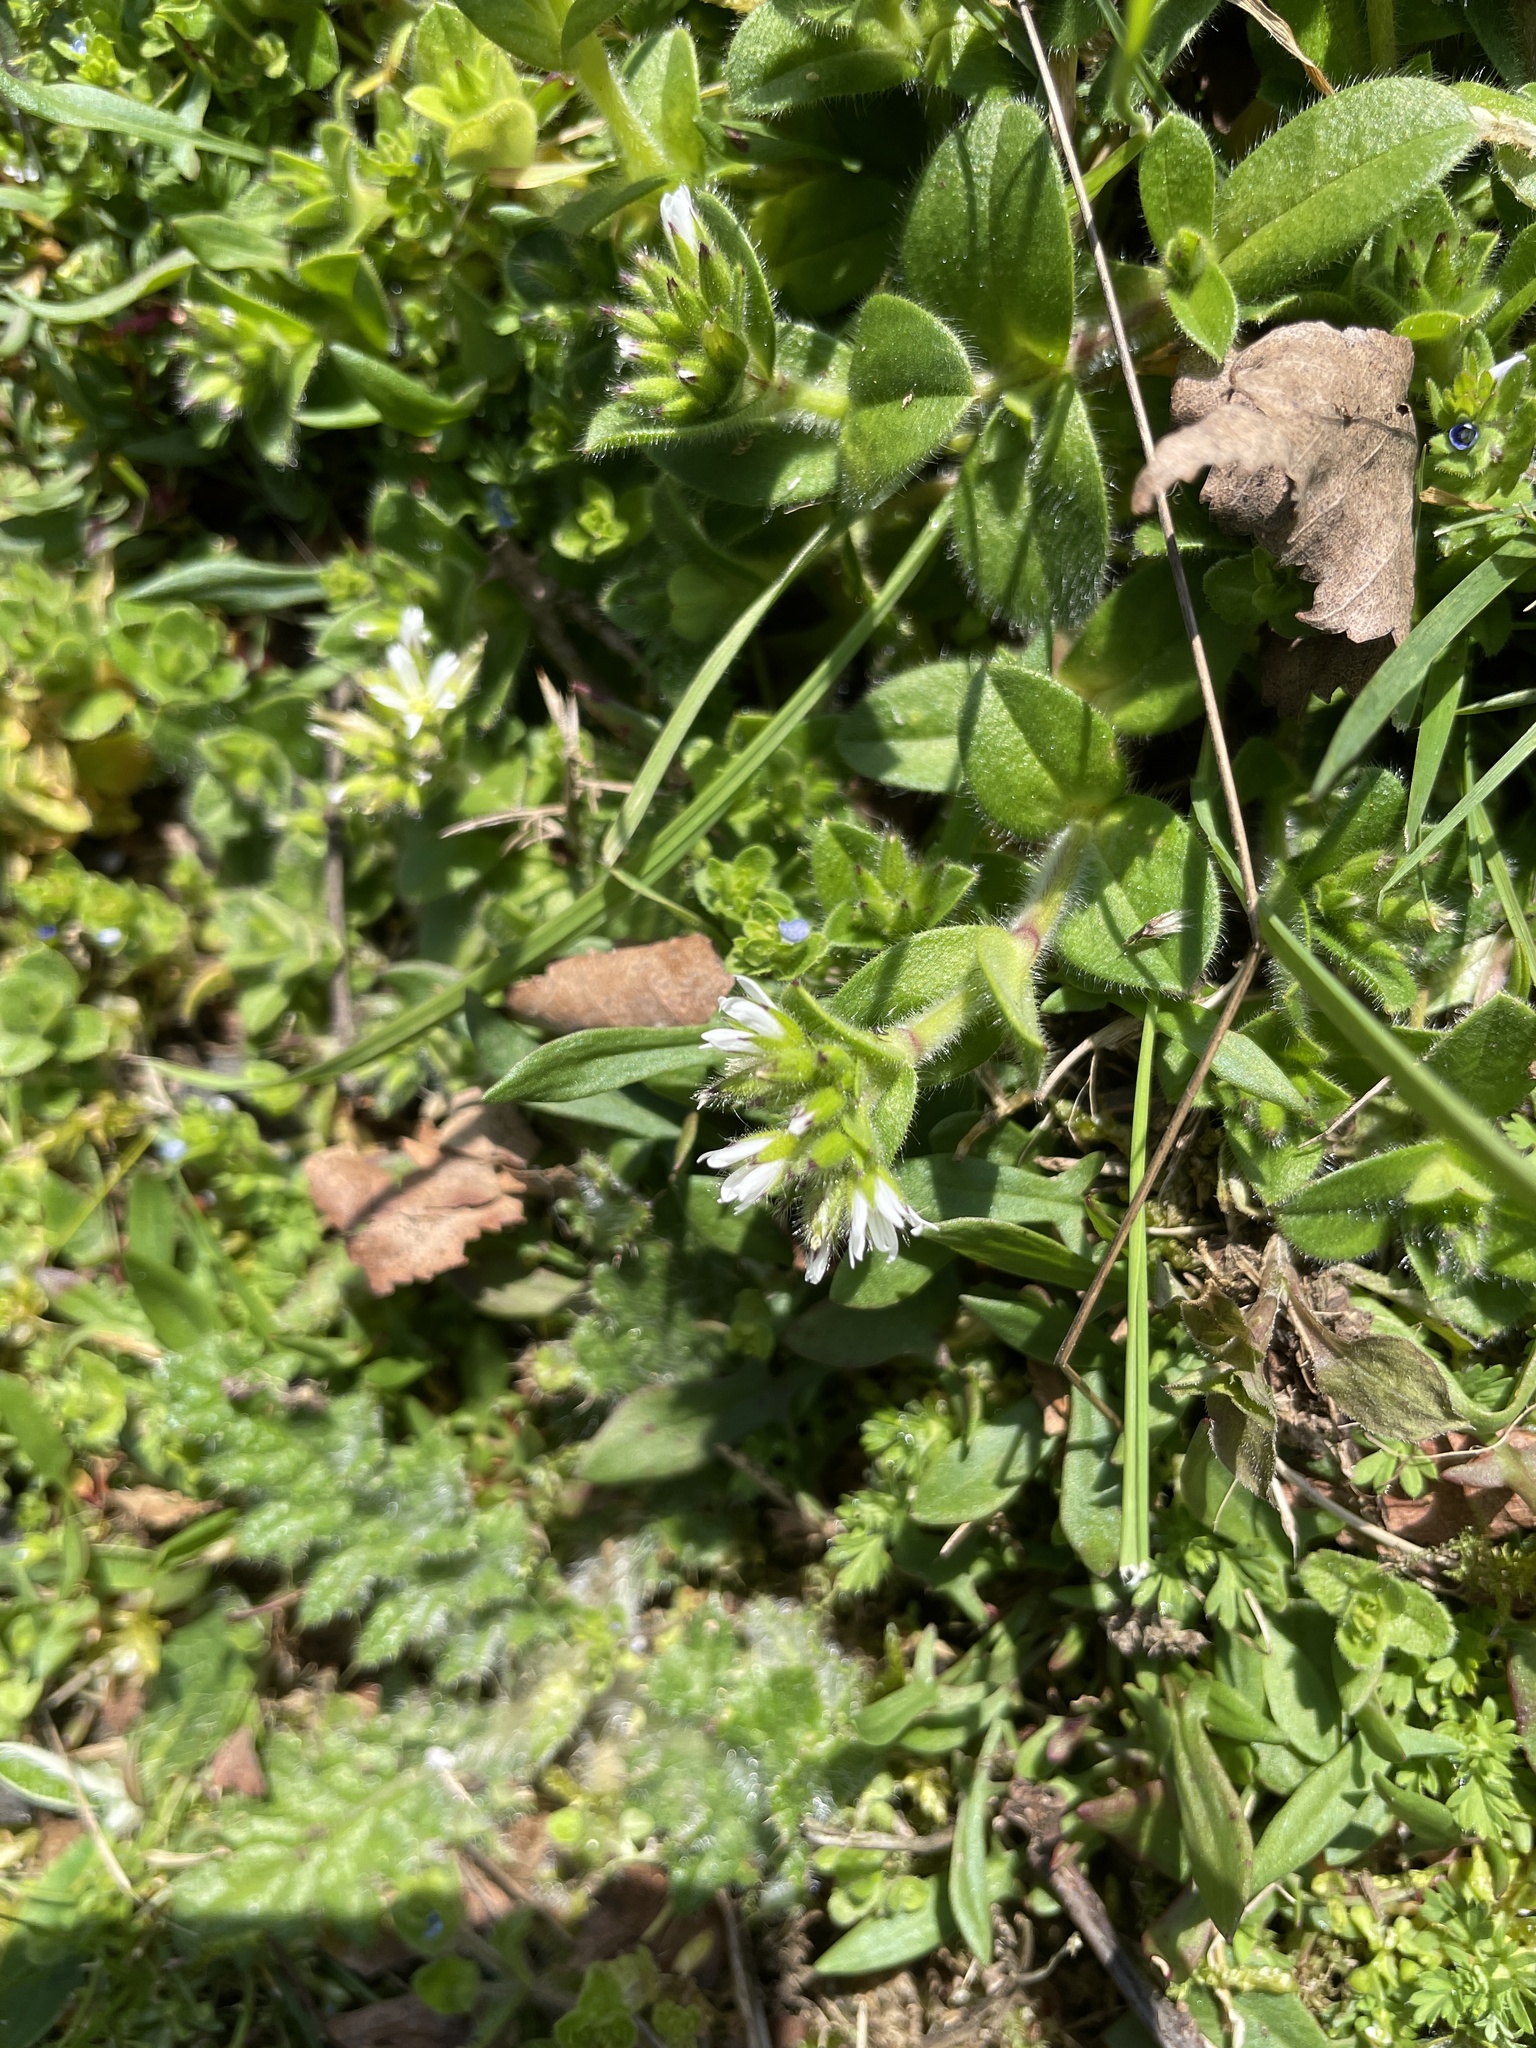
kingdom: Plantae
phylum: Tracheophyta
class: Magnoliopsida
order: Caryophyllales
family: Caryophyllaceae
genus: Cerastium
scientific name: Cerastium glomeratum
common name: Sticky chickweed
